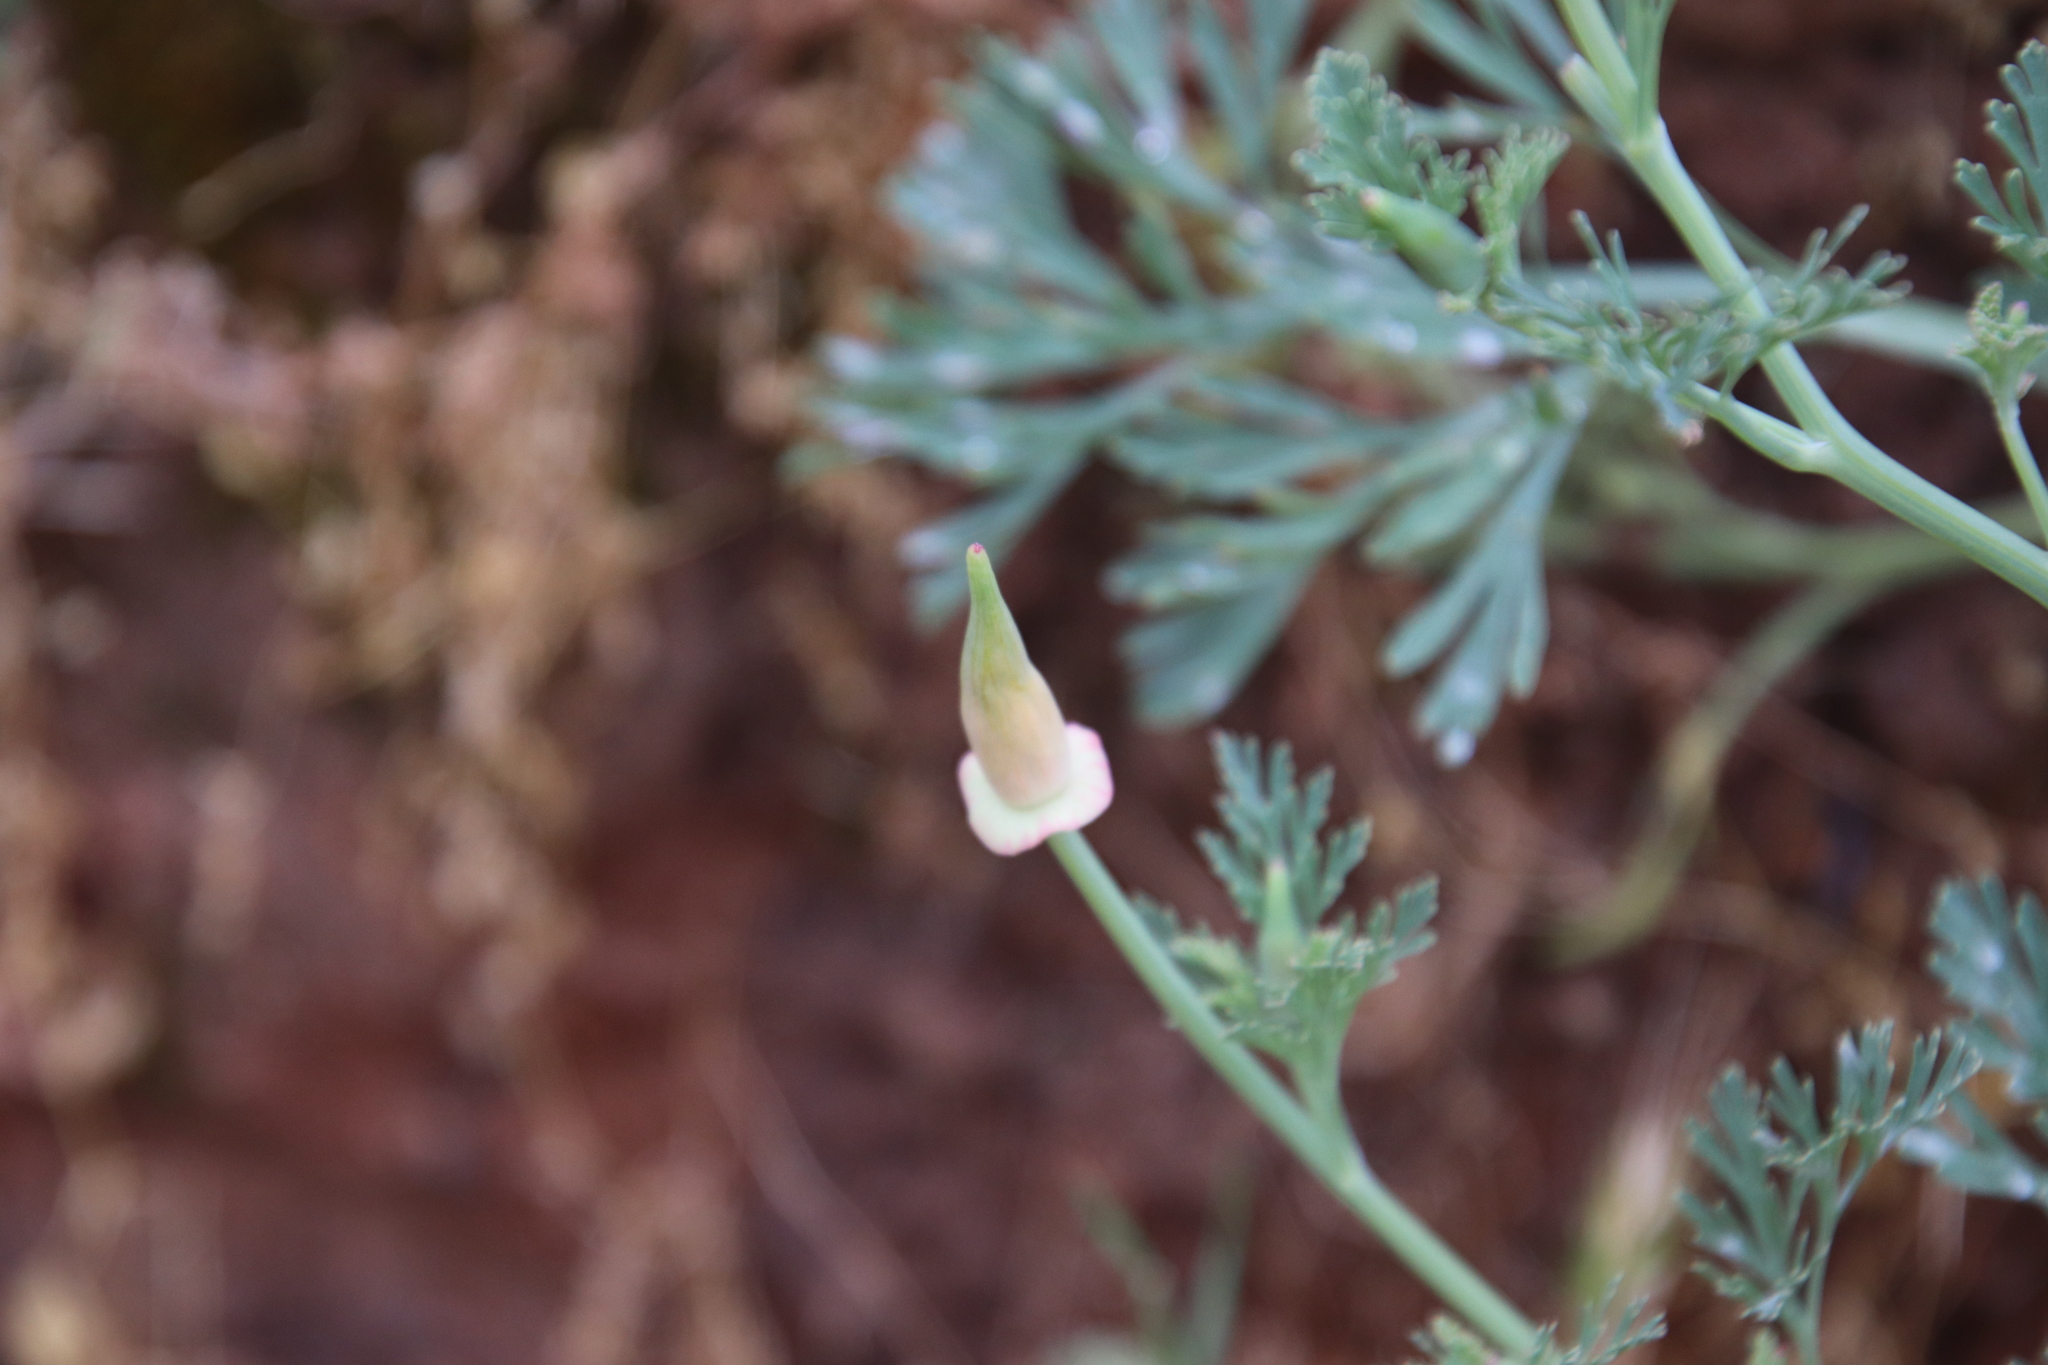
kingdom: Plantae
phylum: Tracheophyta
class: Magnoliopsida
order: Ranunculales
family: Papaveraceae
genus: Eschscholzia
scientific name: Eschscholzia californica
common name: California poppy
